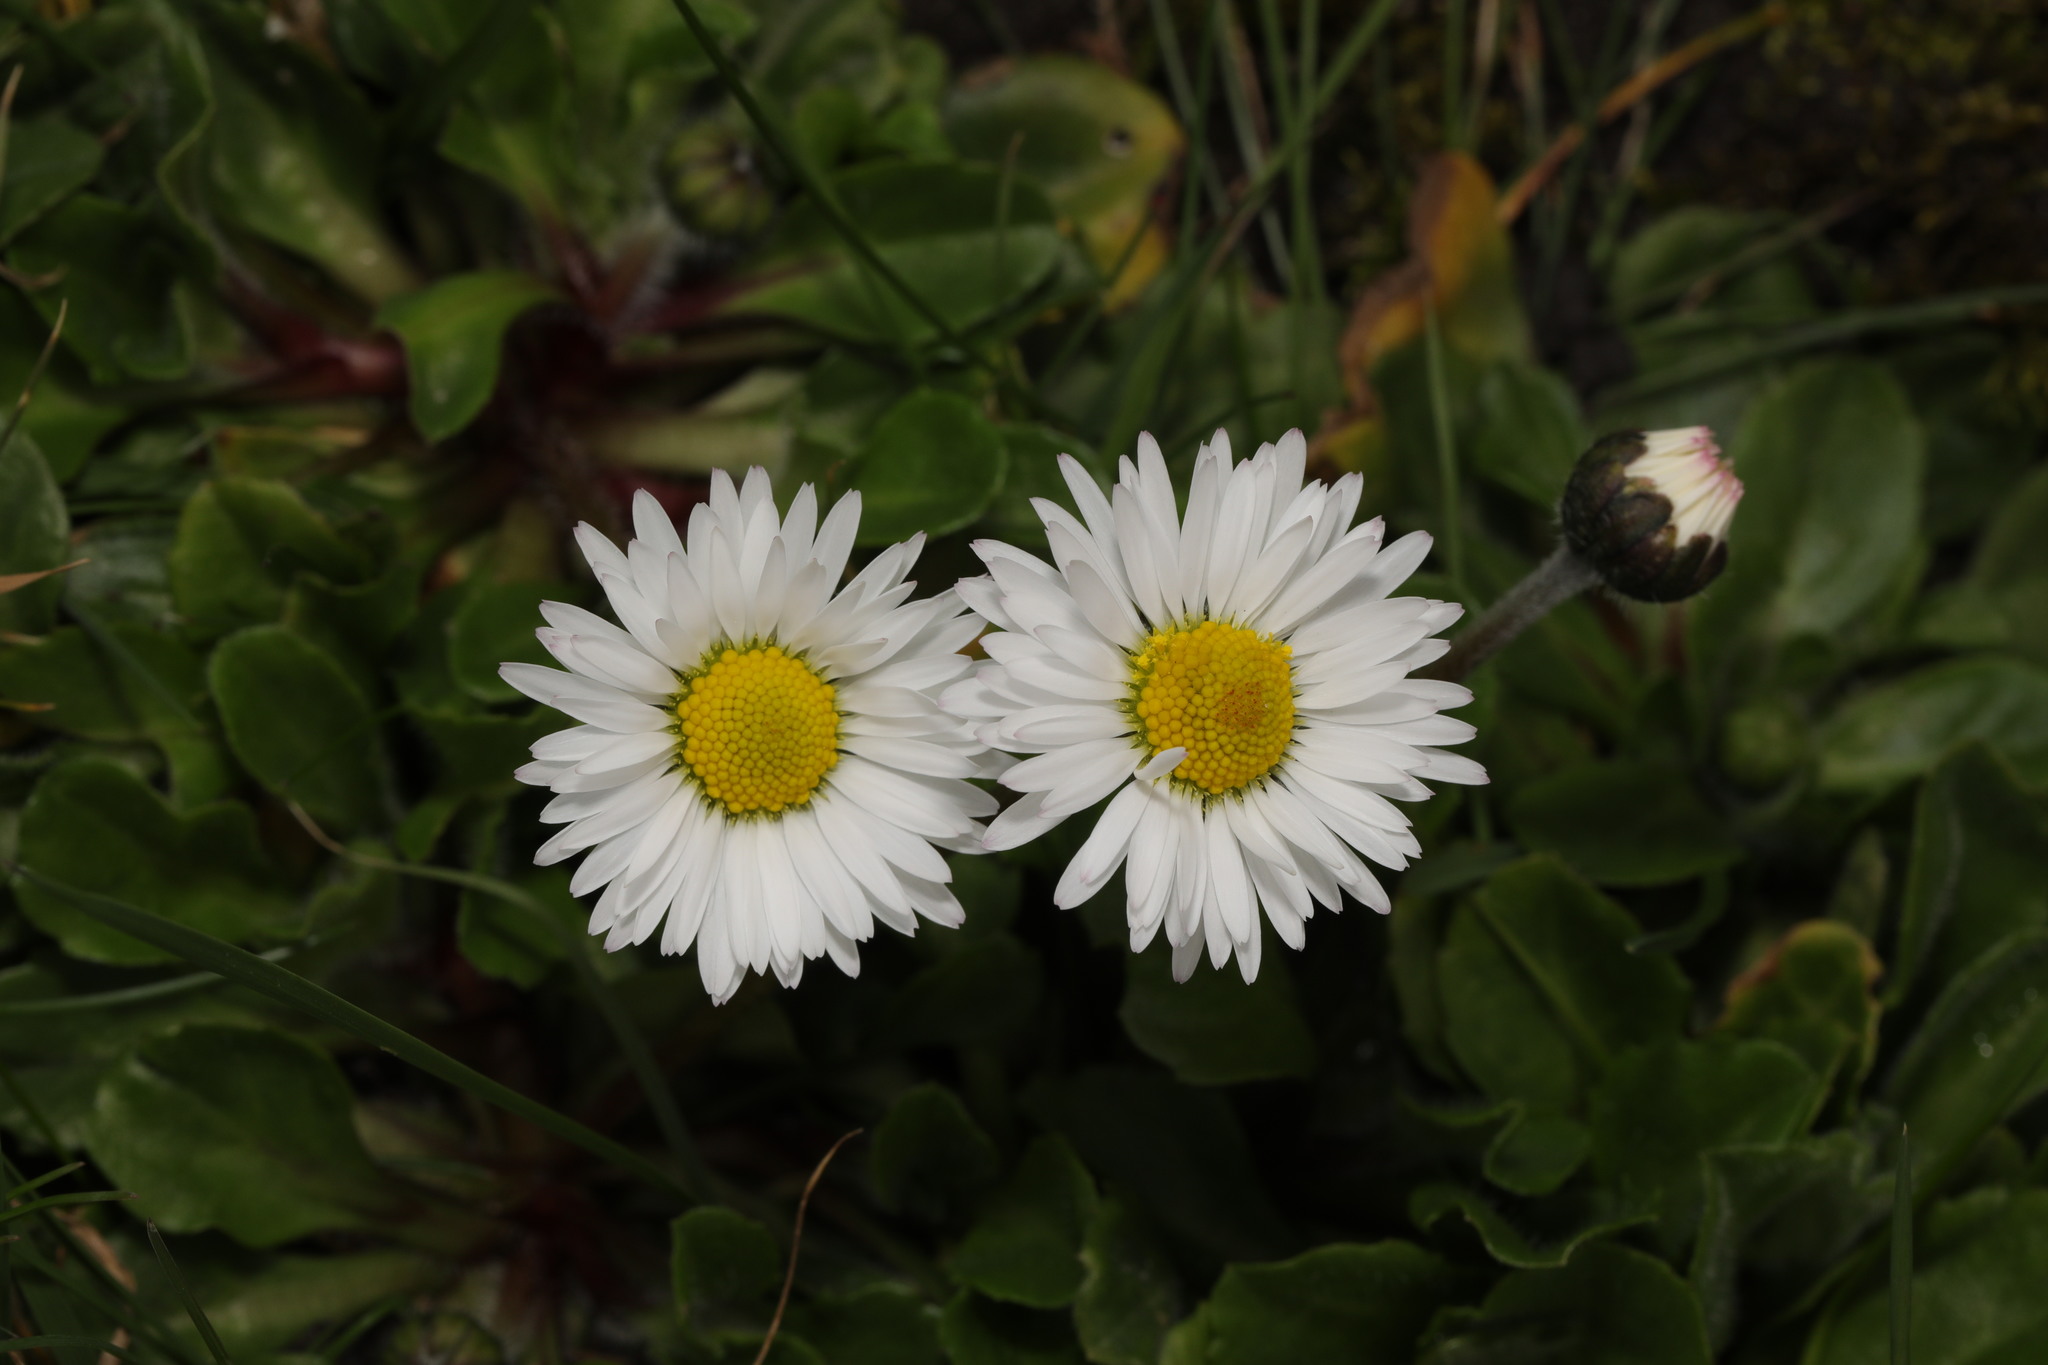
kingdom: Plantae
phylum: Tracheophyta
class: Magnoliopsida
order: Asterales
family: Asteraceae
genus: Bellis
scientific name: Bellis perennis
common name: Lawndaisy
